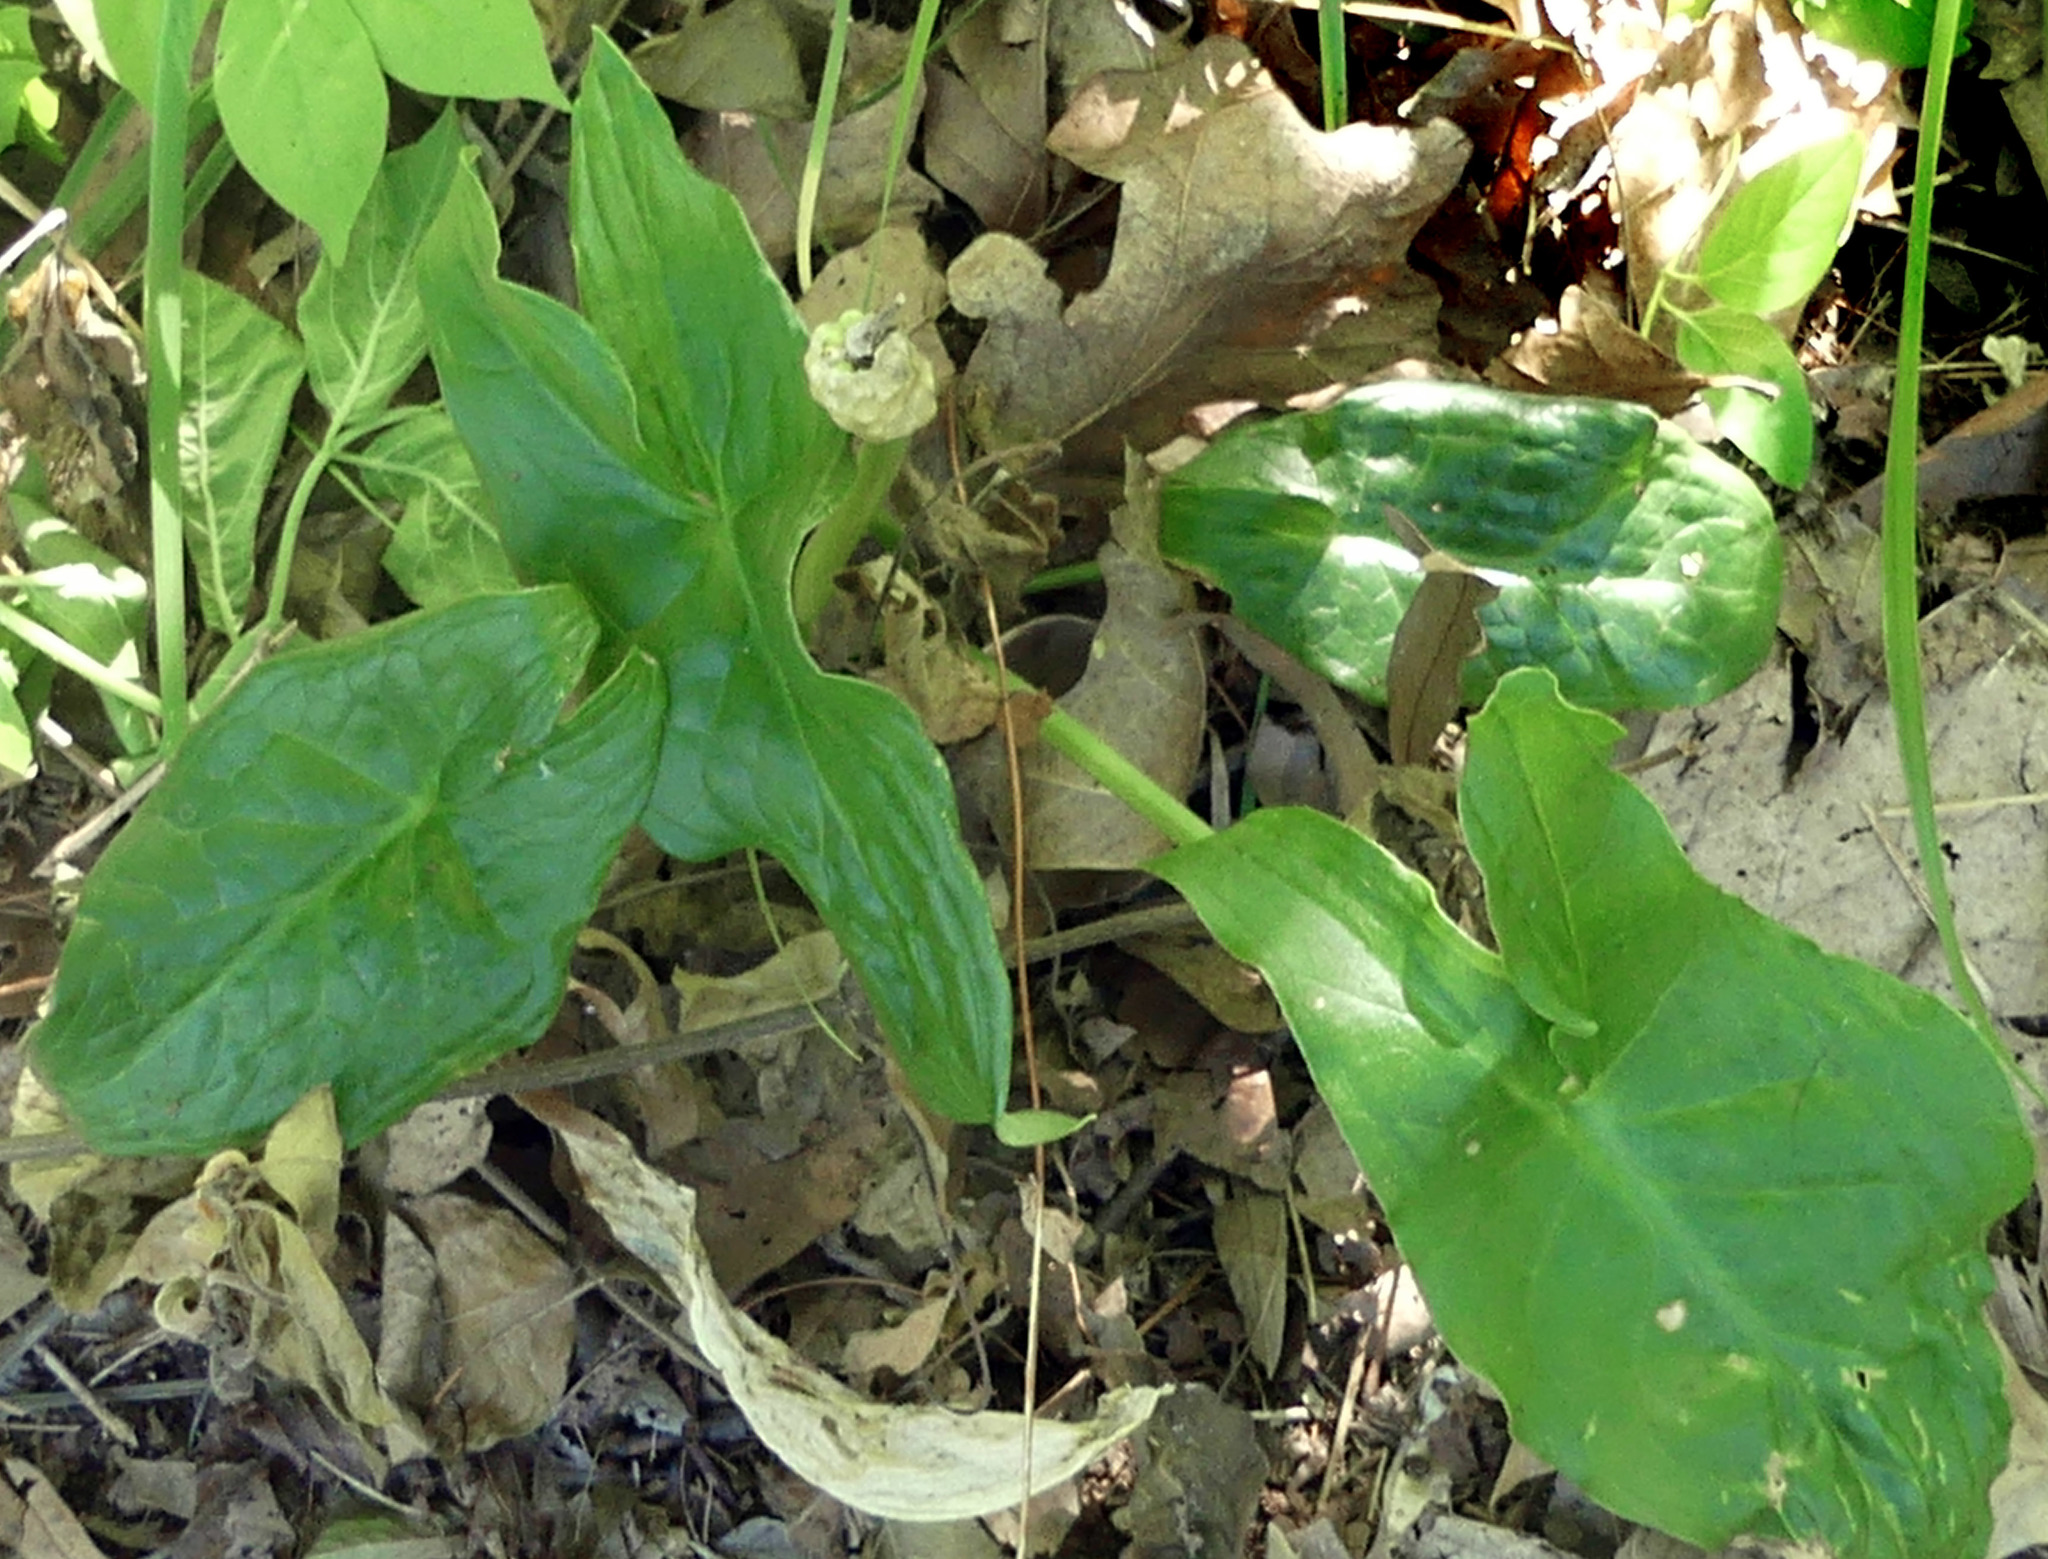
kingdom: Plantae
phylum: Tracheophyta
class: Liliopsida
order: Alismatales
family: Araceae
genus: Peltandra
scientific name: Peltandra virginica
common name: Arrow arum
